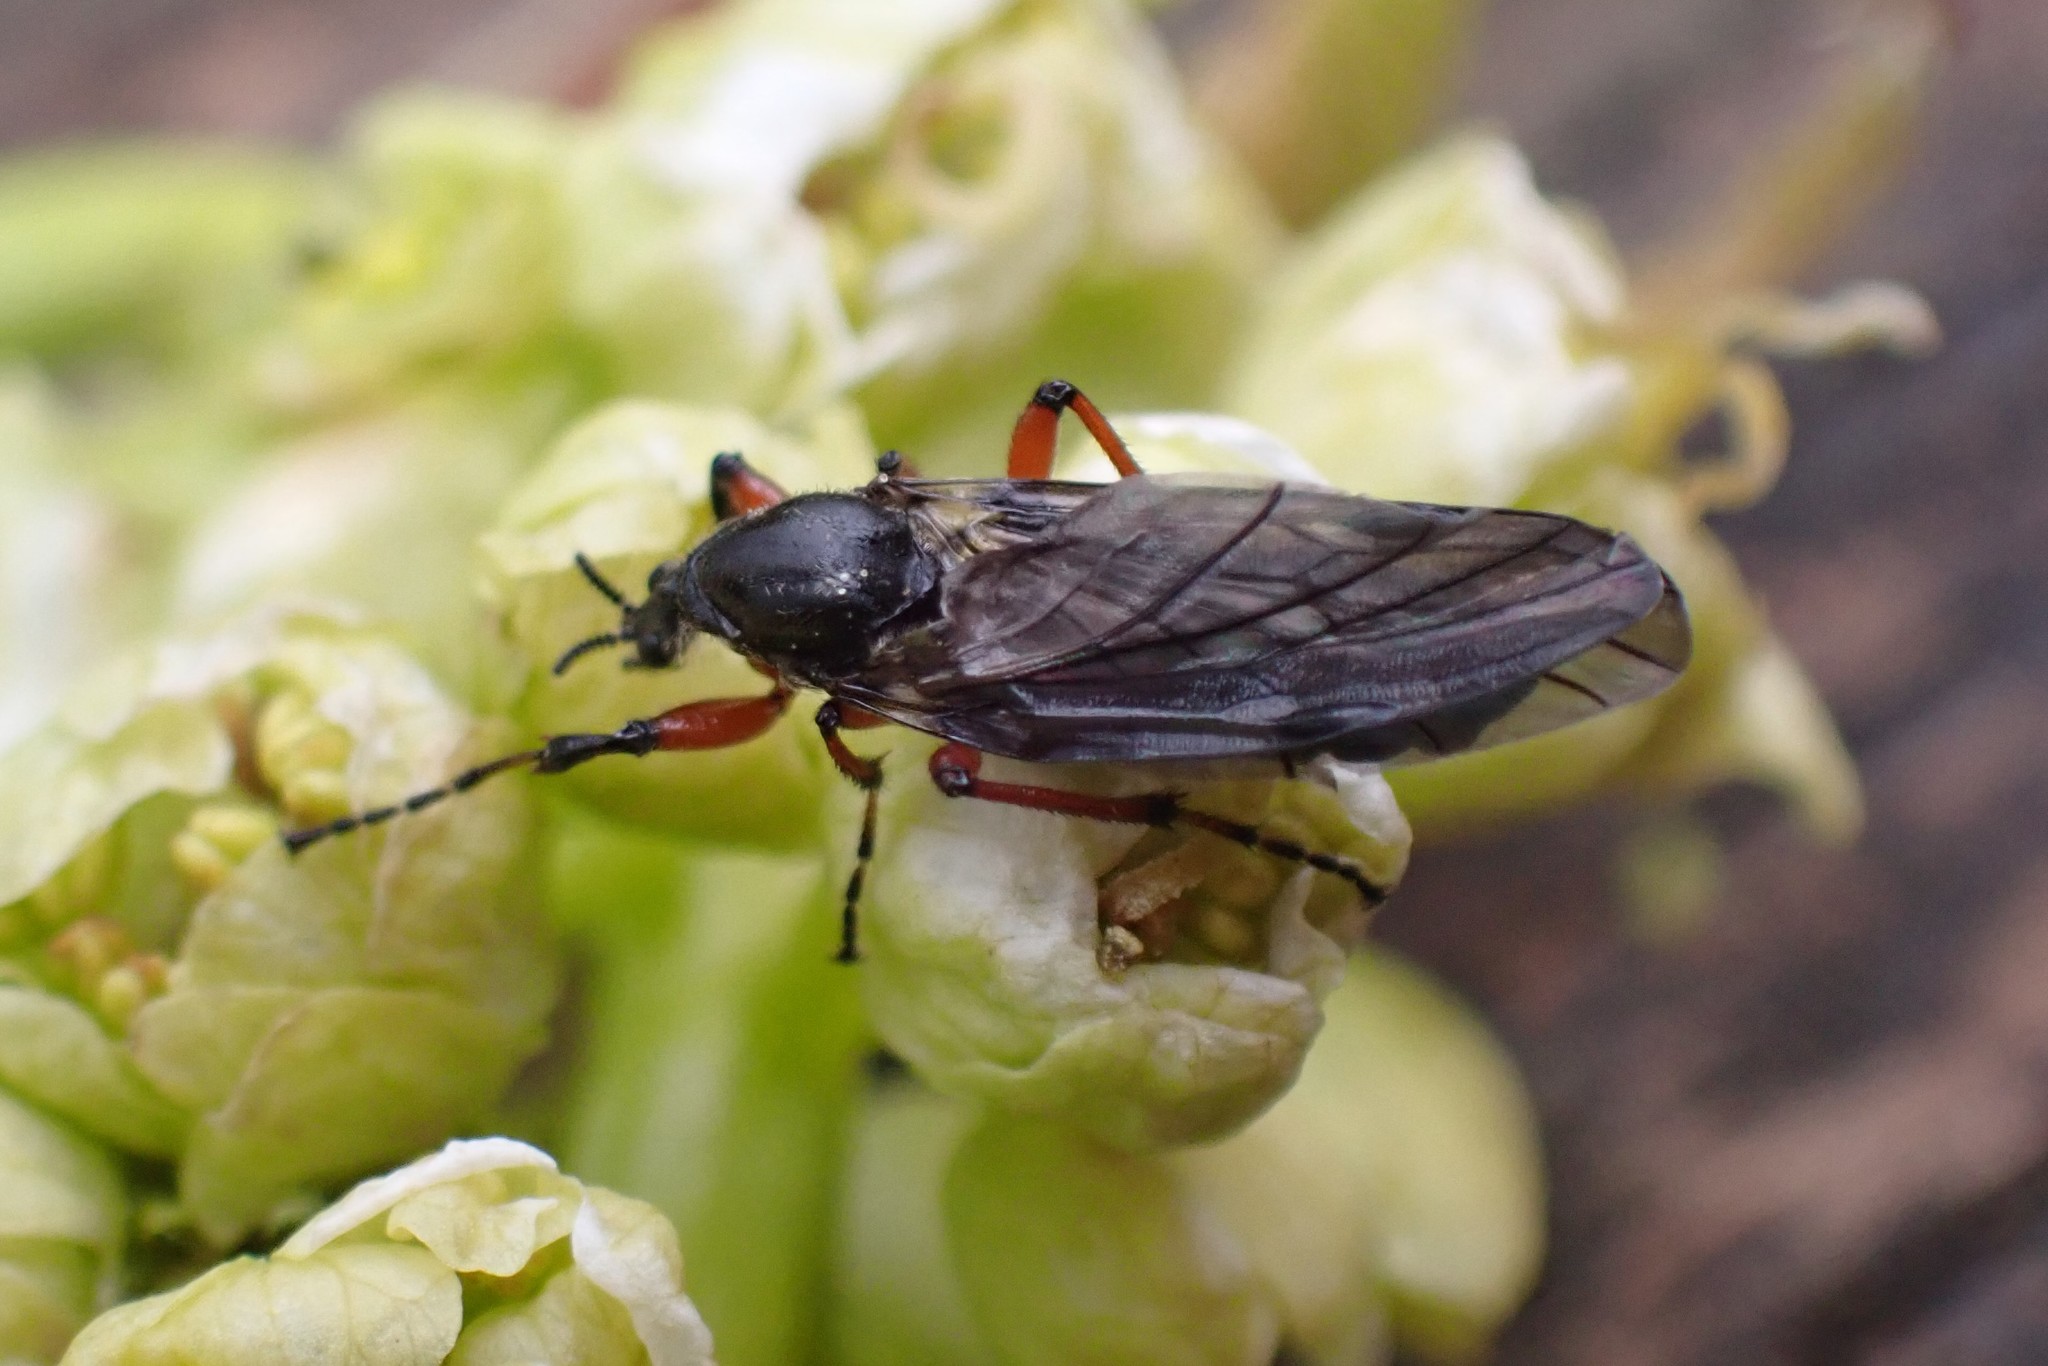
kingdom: Animalia
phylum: Arthropoda
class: Insecta
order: Diptera
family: Bibionidae
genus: Bibio
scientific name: Bibio
